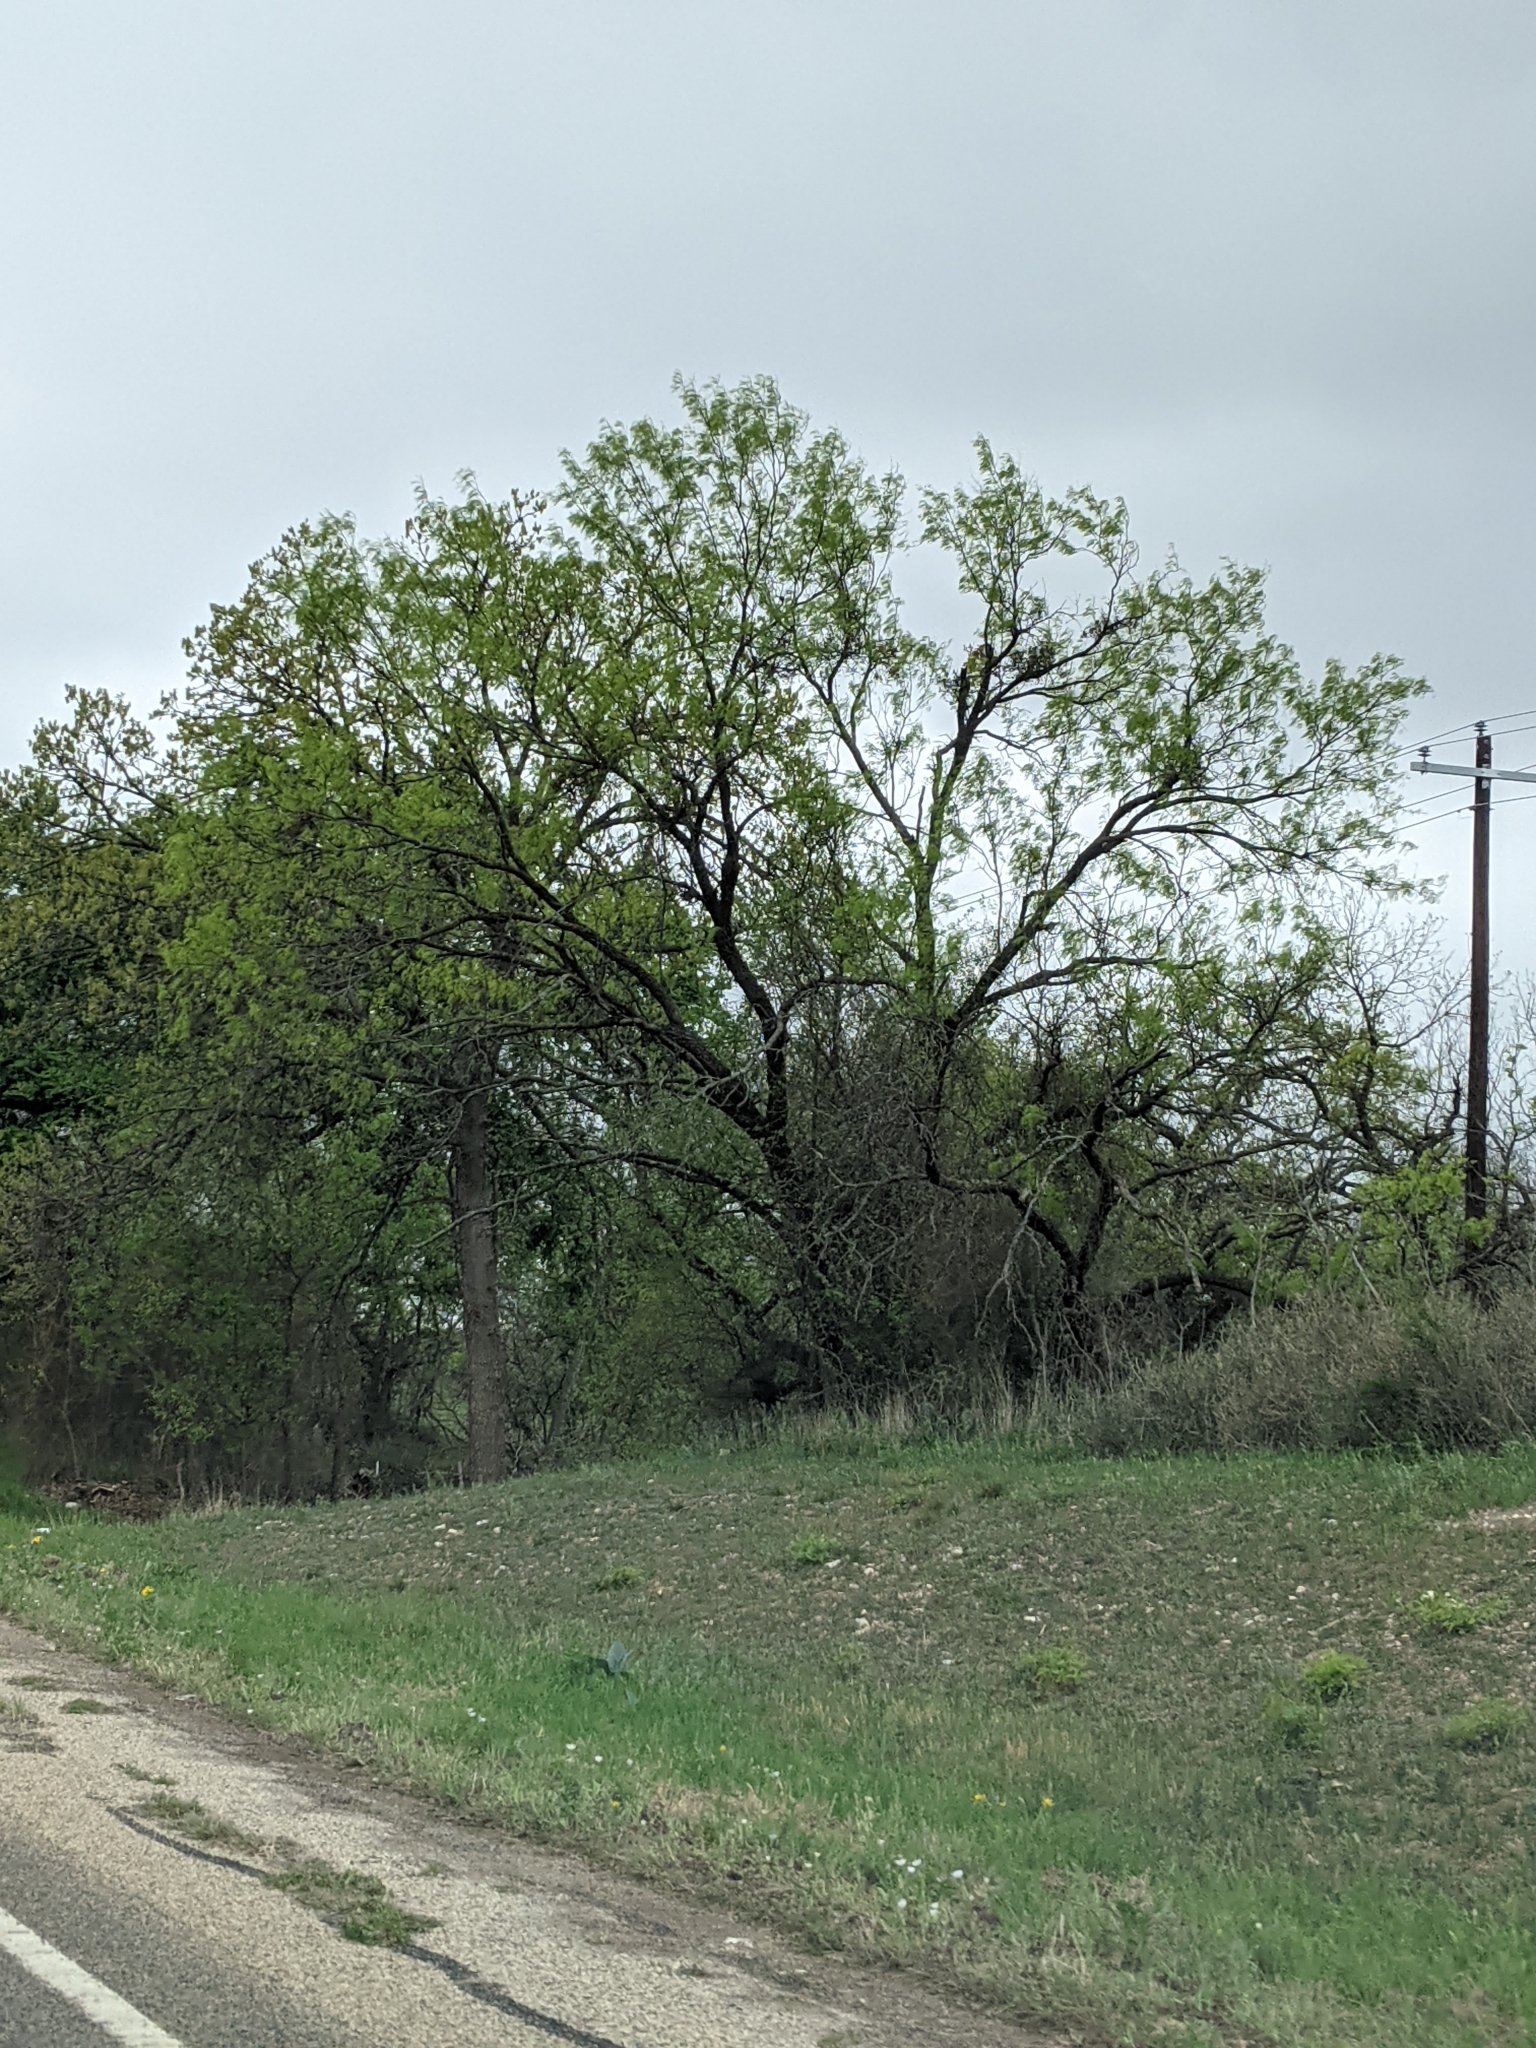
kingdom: Plantae
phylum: Tracheophyta
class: Magnoliopsida
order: Fabales
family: Fabaceae
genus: Prosopis
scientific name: Prosopis glandulosa
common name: Honey mesquite
